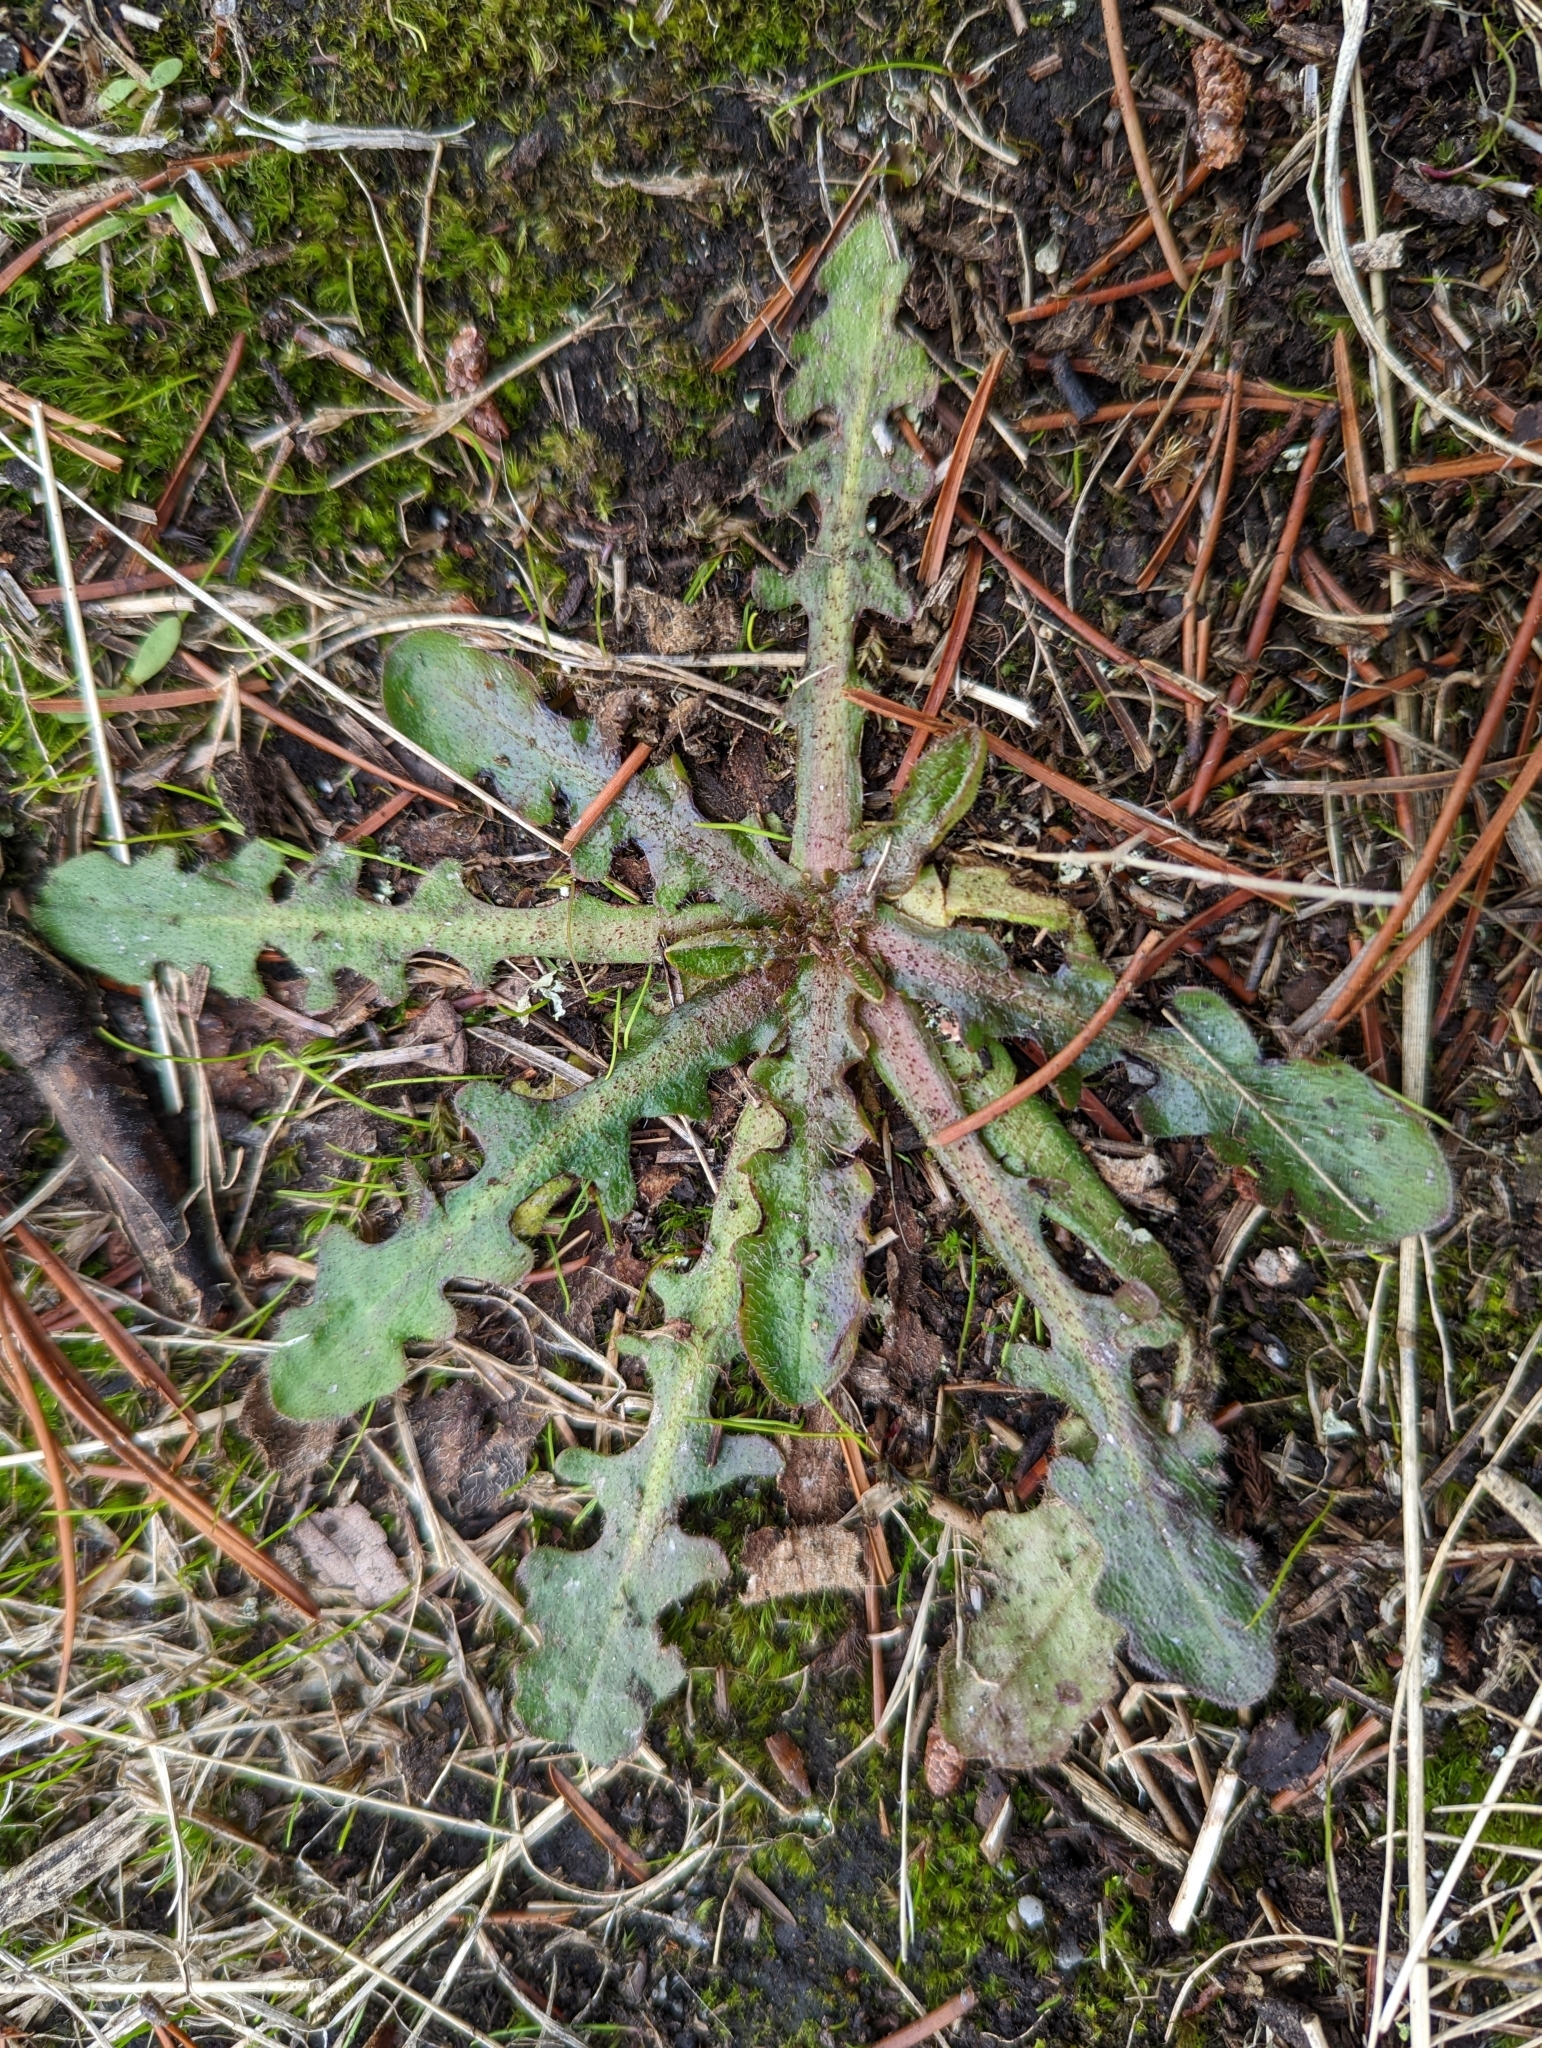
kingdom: Plantae
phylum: Tracheophyta
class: Magnoliopsida
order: Asterales
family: Asteraceae
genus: Hypochaeris
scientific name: Hypochaeris radicata
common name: Flatweed
